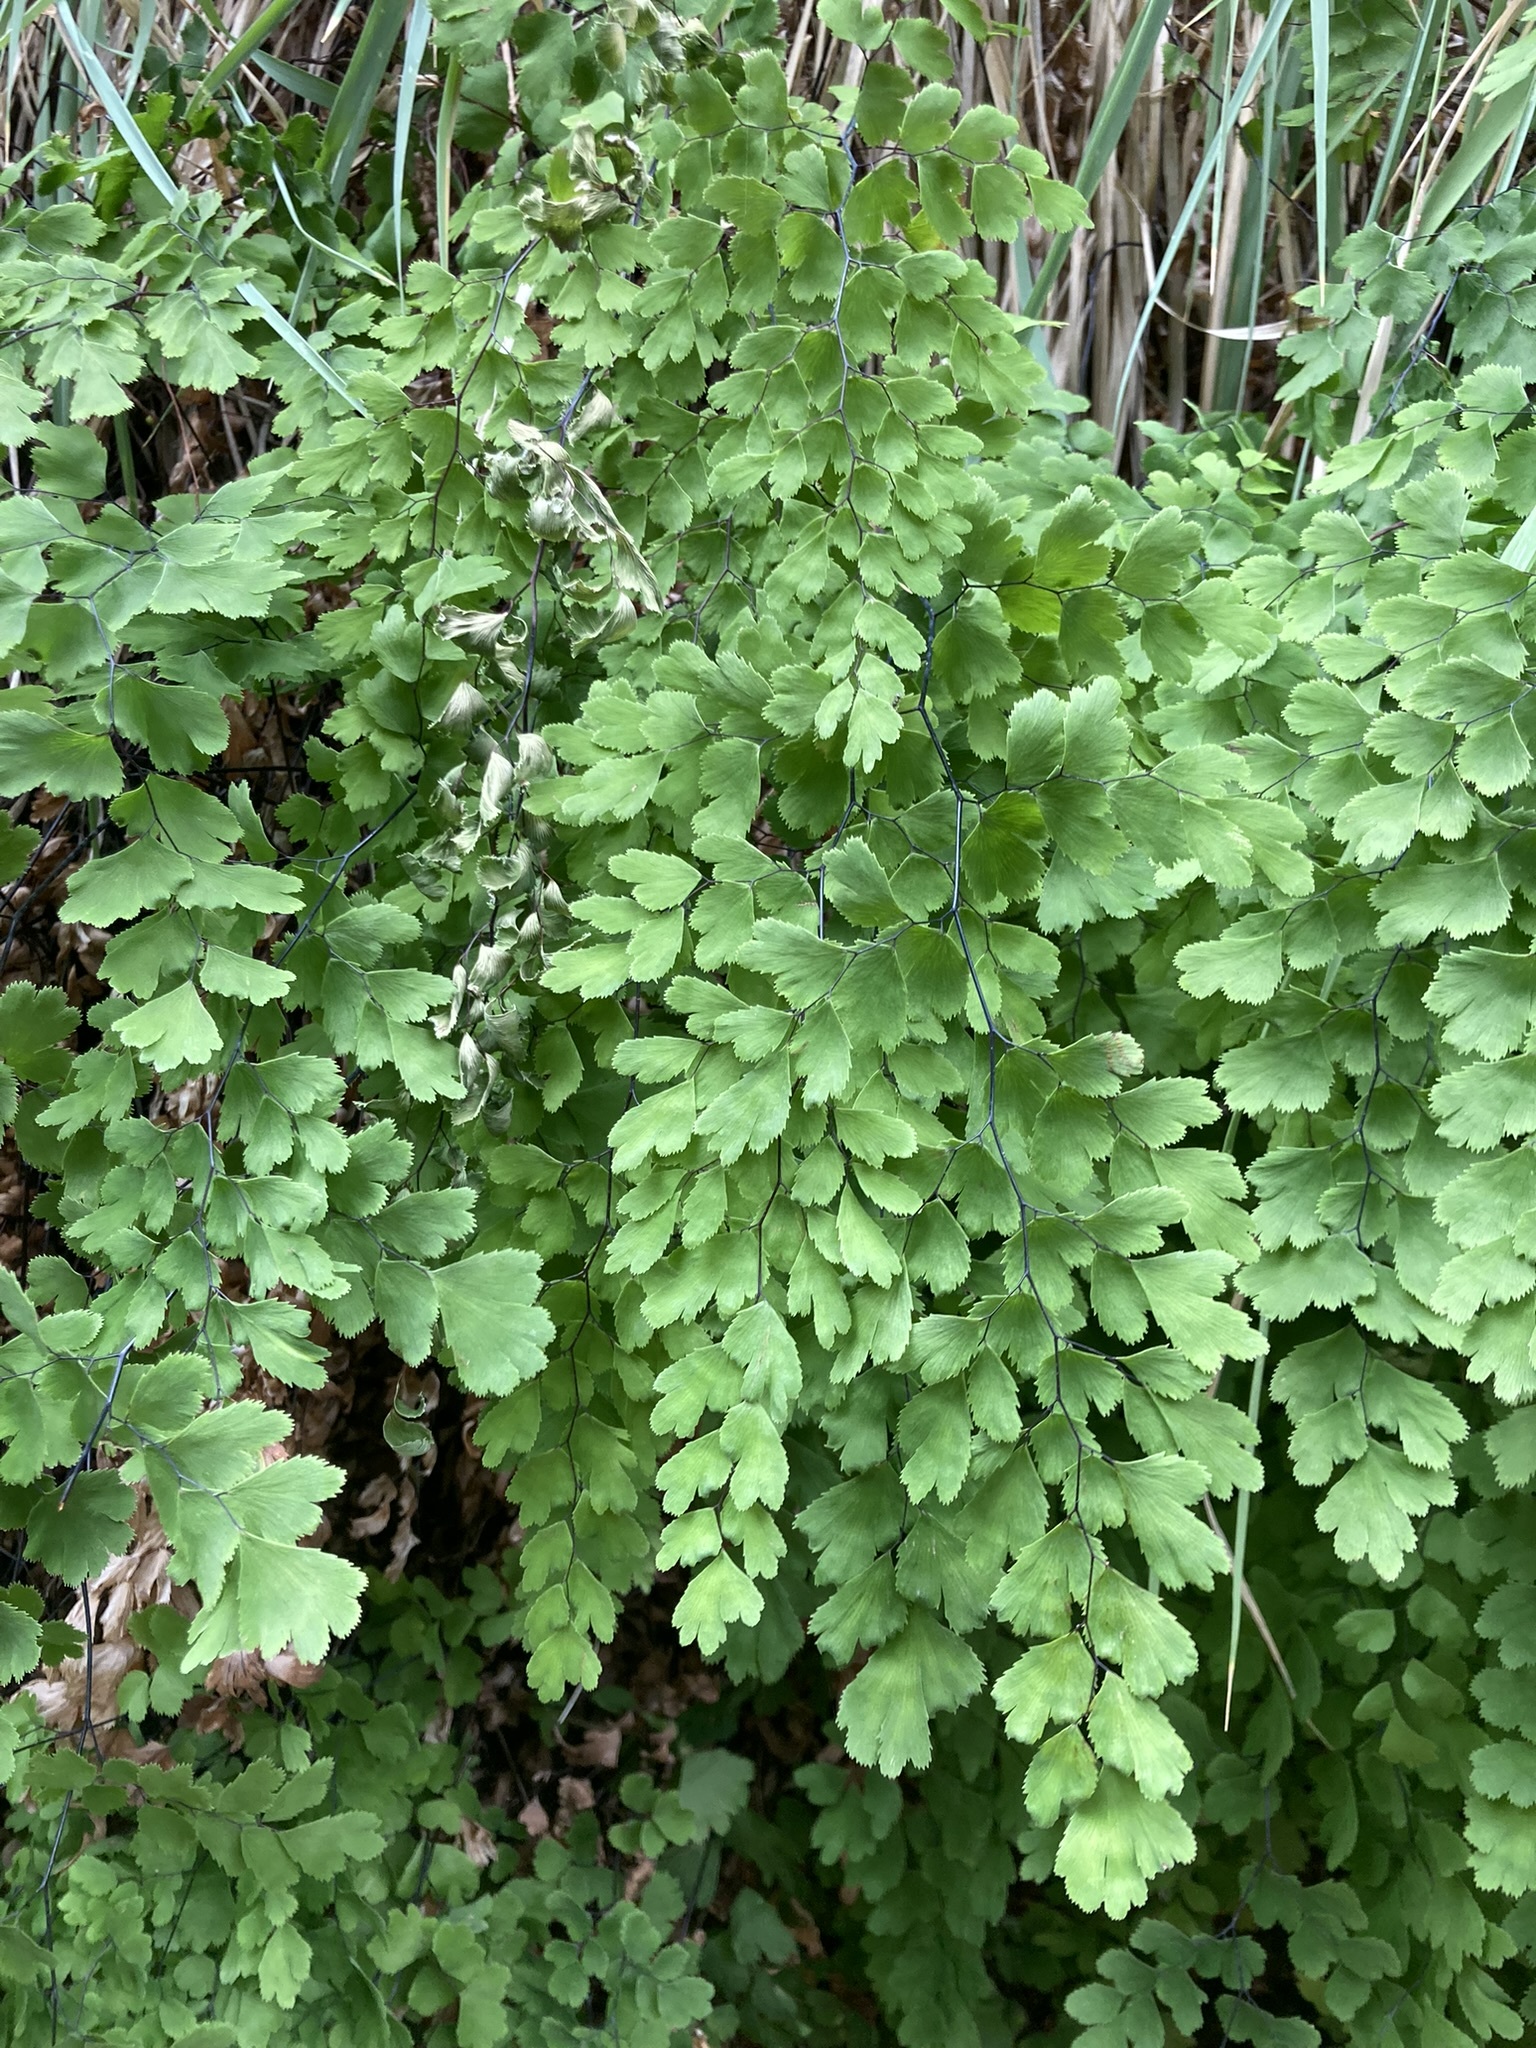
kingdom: Plantae
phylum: Tracheophyta
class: Polypodiopsida
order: Polypodiales
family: Pteridaceae
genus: Adiantum
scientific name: Adiantum capillus-veneris
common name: Maidenhair fern
